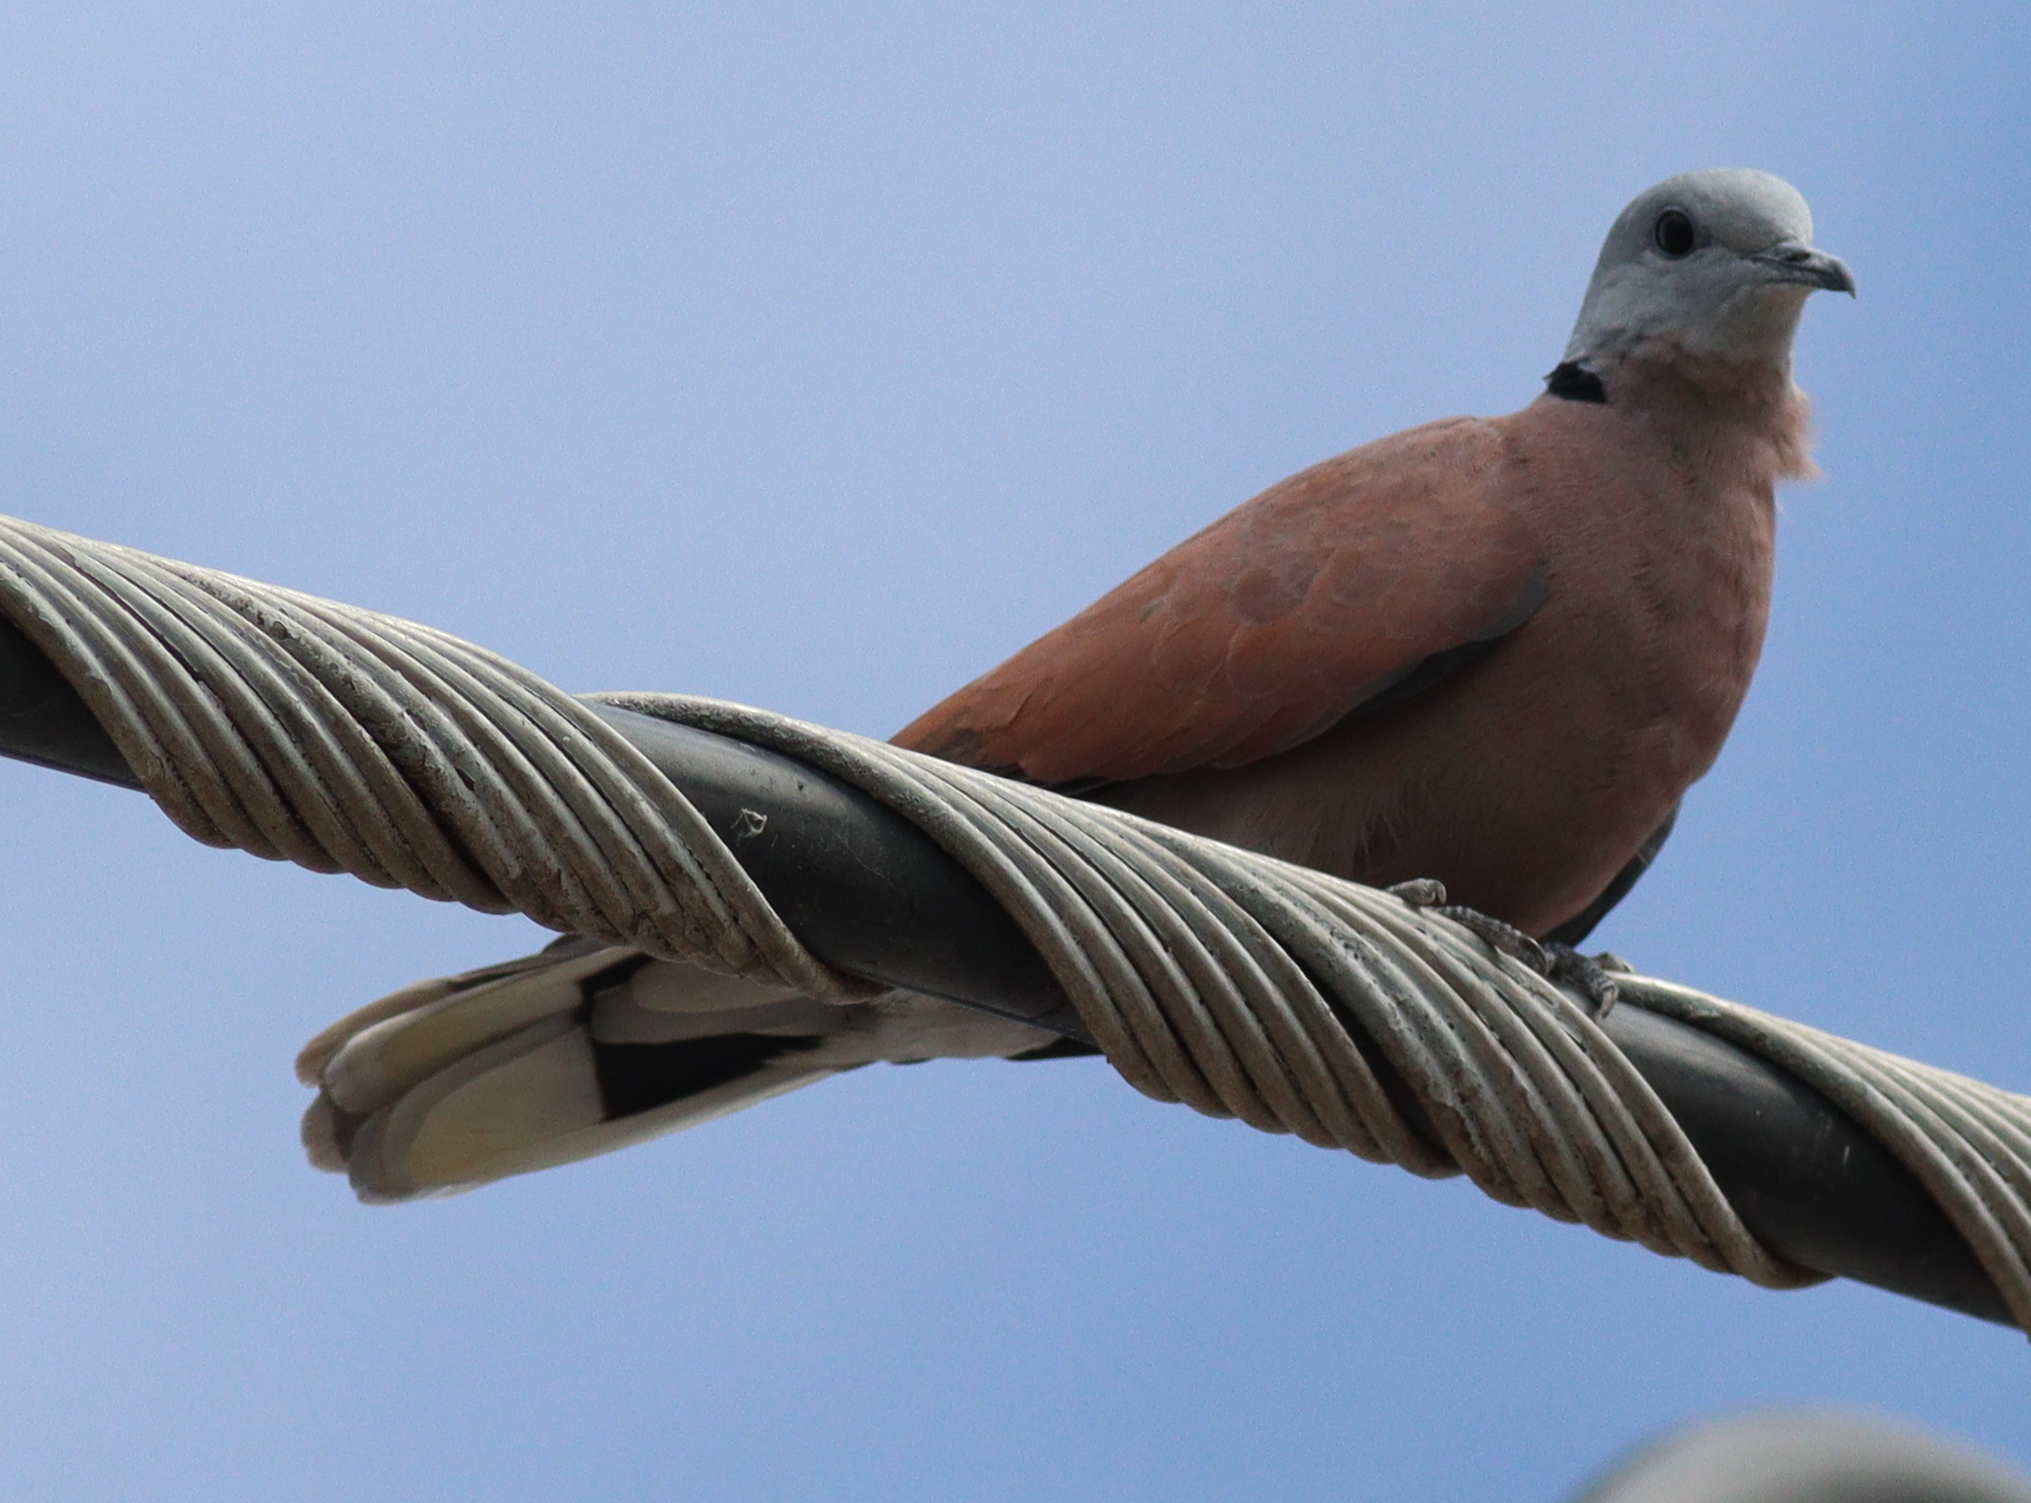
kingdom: Animalia
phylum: Chordata
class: Aves
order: Columbiformes
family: Columbidae
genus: Streptopelia
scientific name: Streptopelia tranquebarica
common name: Red turtle dove
